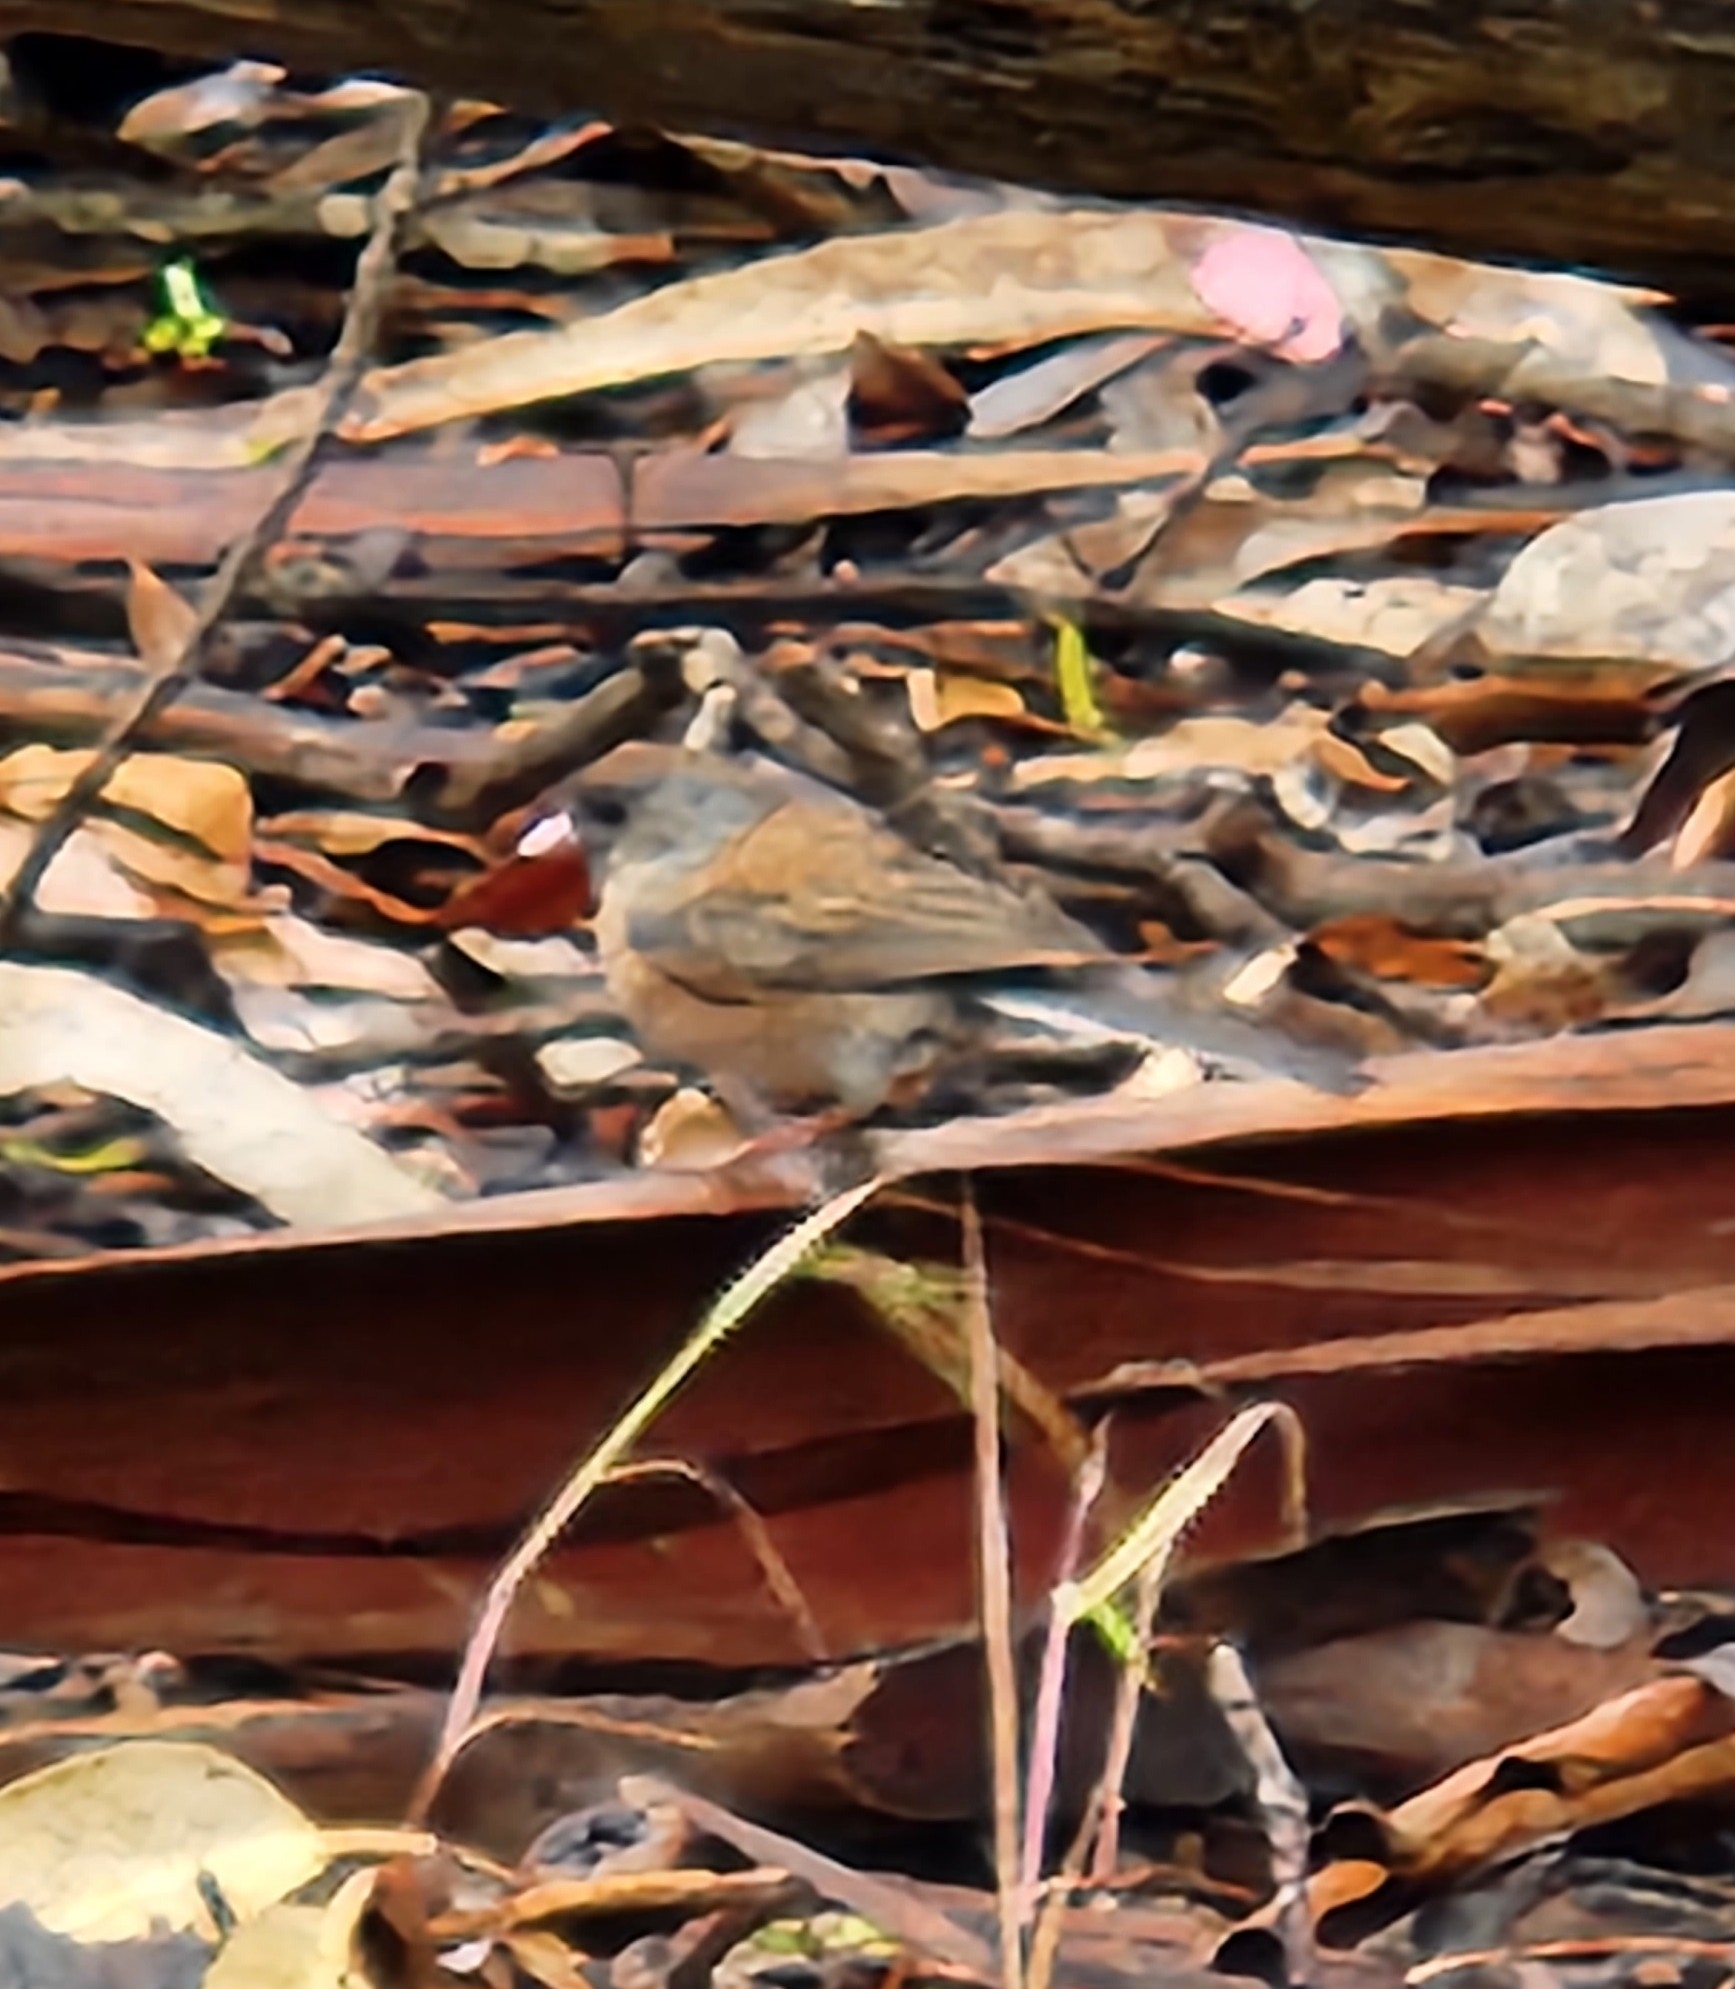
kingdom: Animalia
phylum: Chordata
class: Aves
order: Passeriformes
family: Passerellidae
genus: Junco
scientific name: Junco hyemalis
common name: Dark-eyed junco
